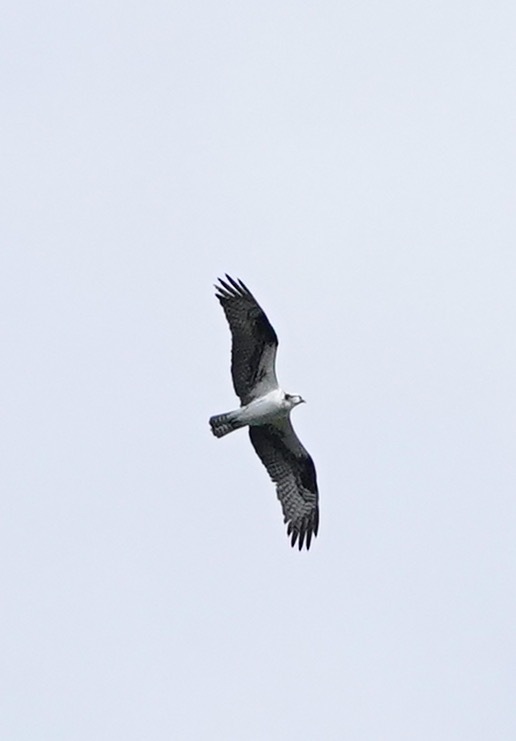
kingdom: Animalia
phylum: Chordata
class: Aves
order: Accipitriformes
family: Pandionidae
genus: Pandion
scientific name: Pandion haliaetus
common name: Osprey
